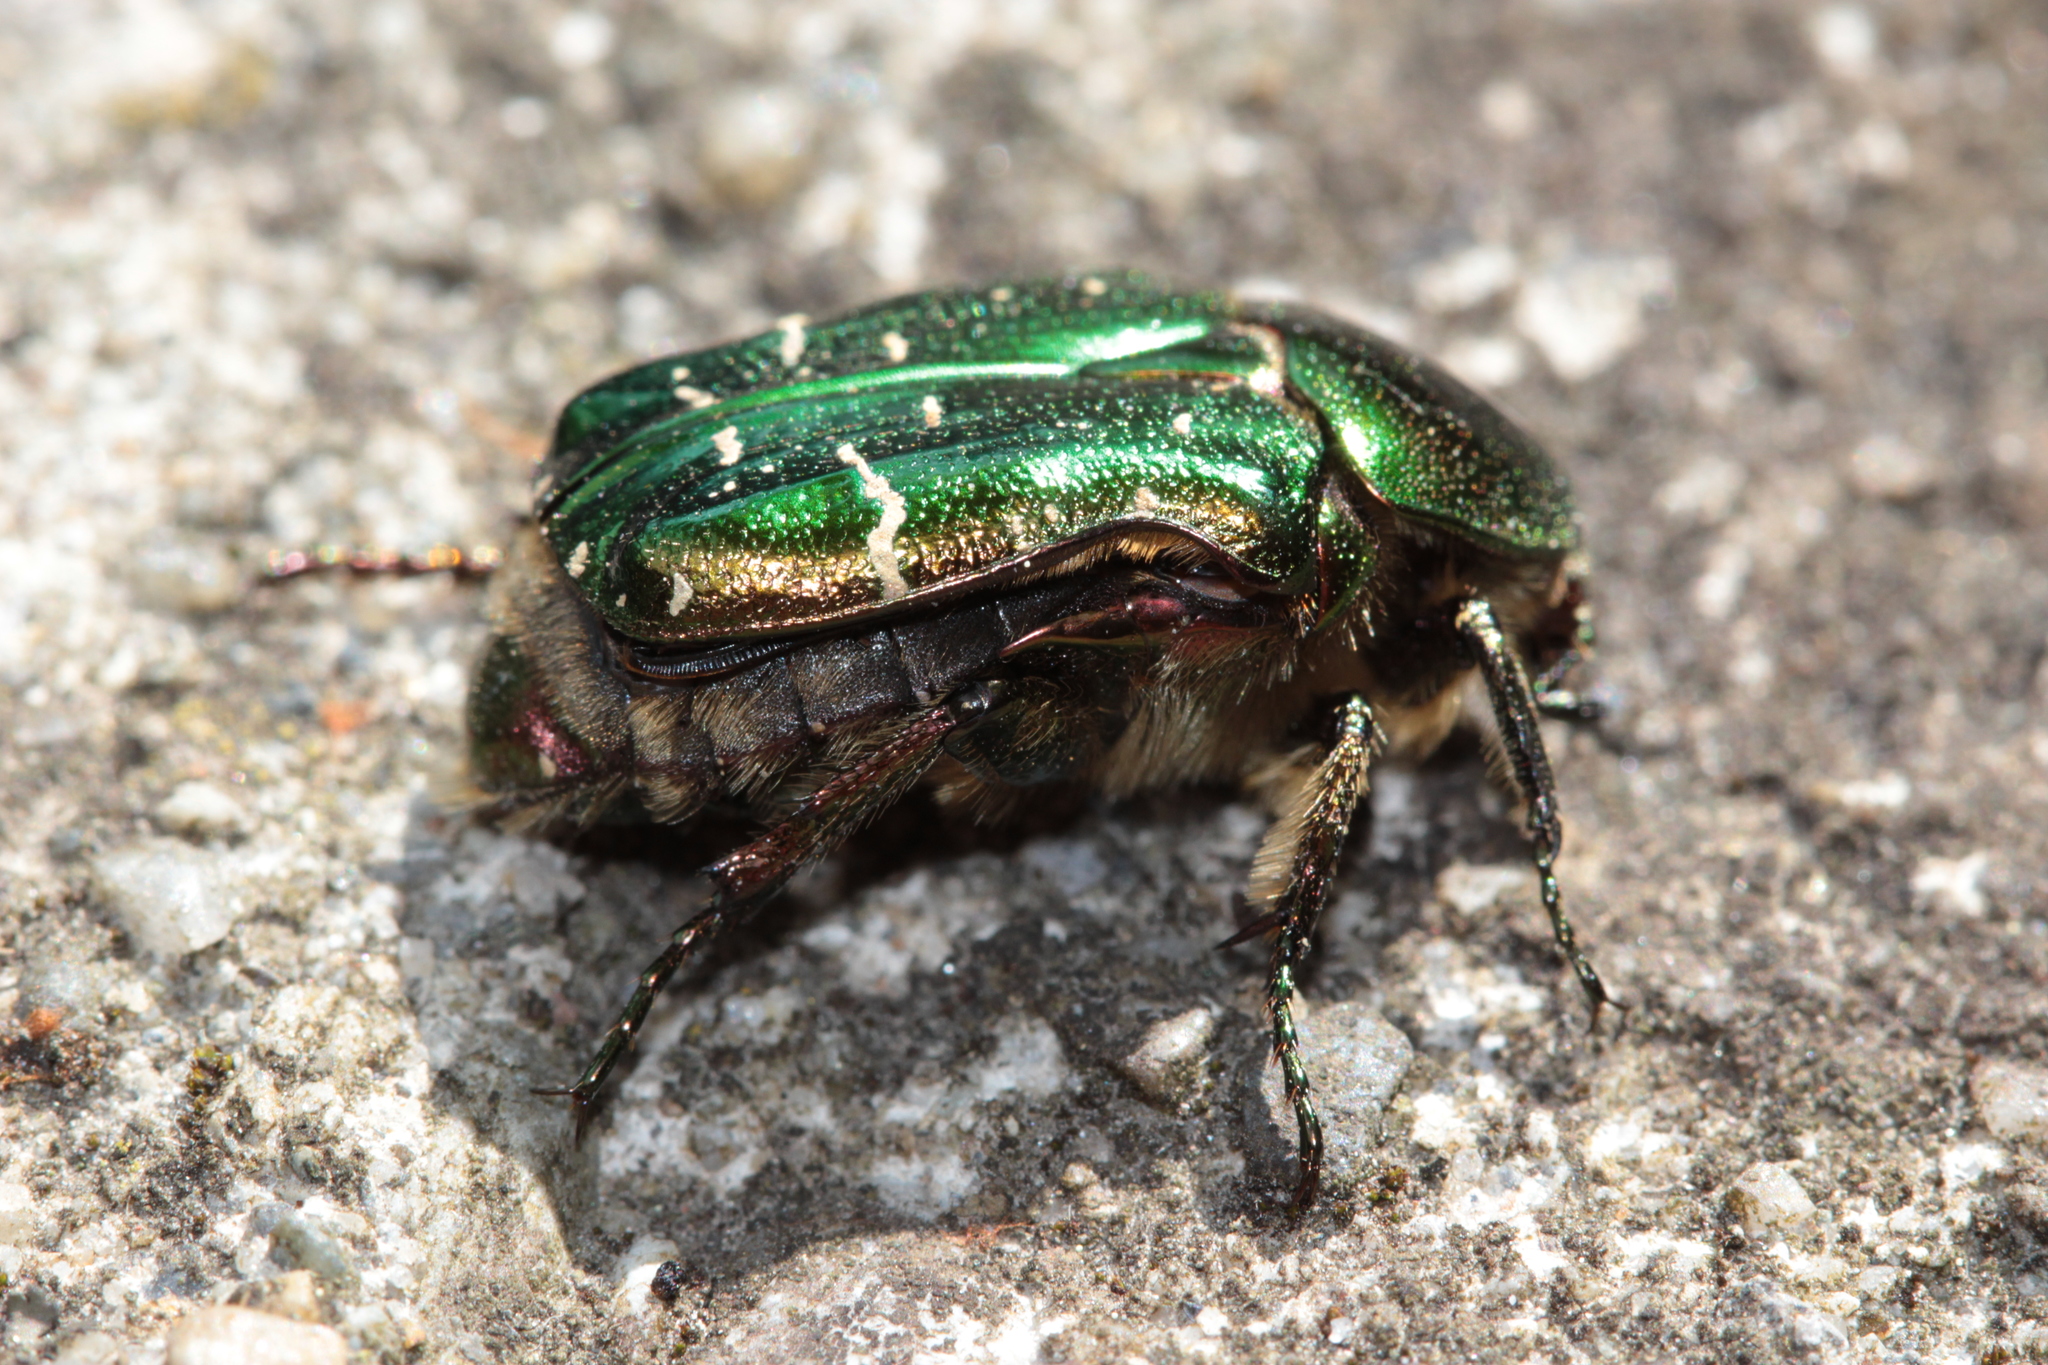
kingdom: Animalia
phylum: Arthropoda
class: Insecta
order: Coleoptera
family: Scarabaeidae
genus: Cetonia
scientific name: Cetonia aurata
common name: Rose chafer
